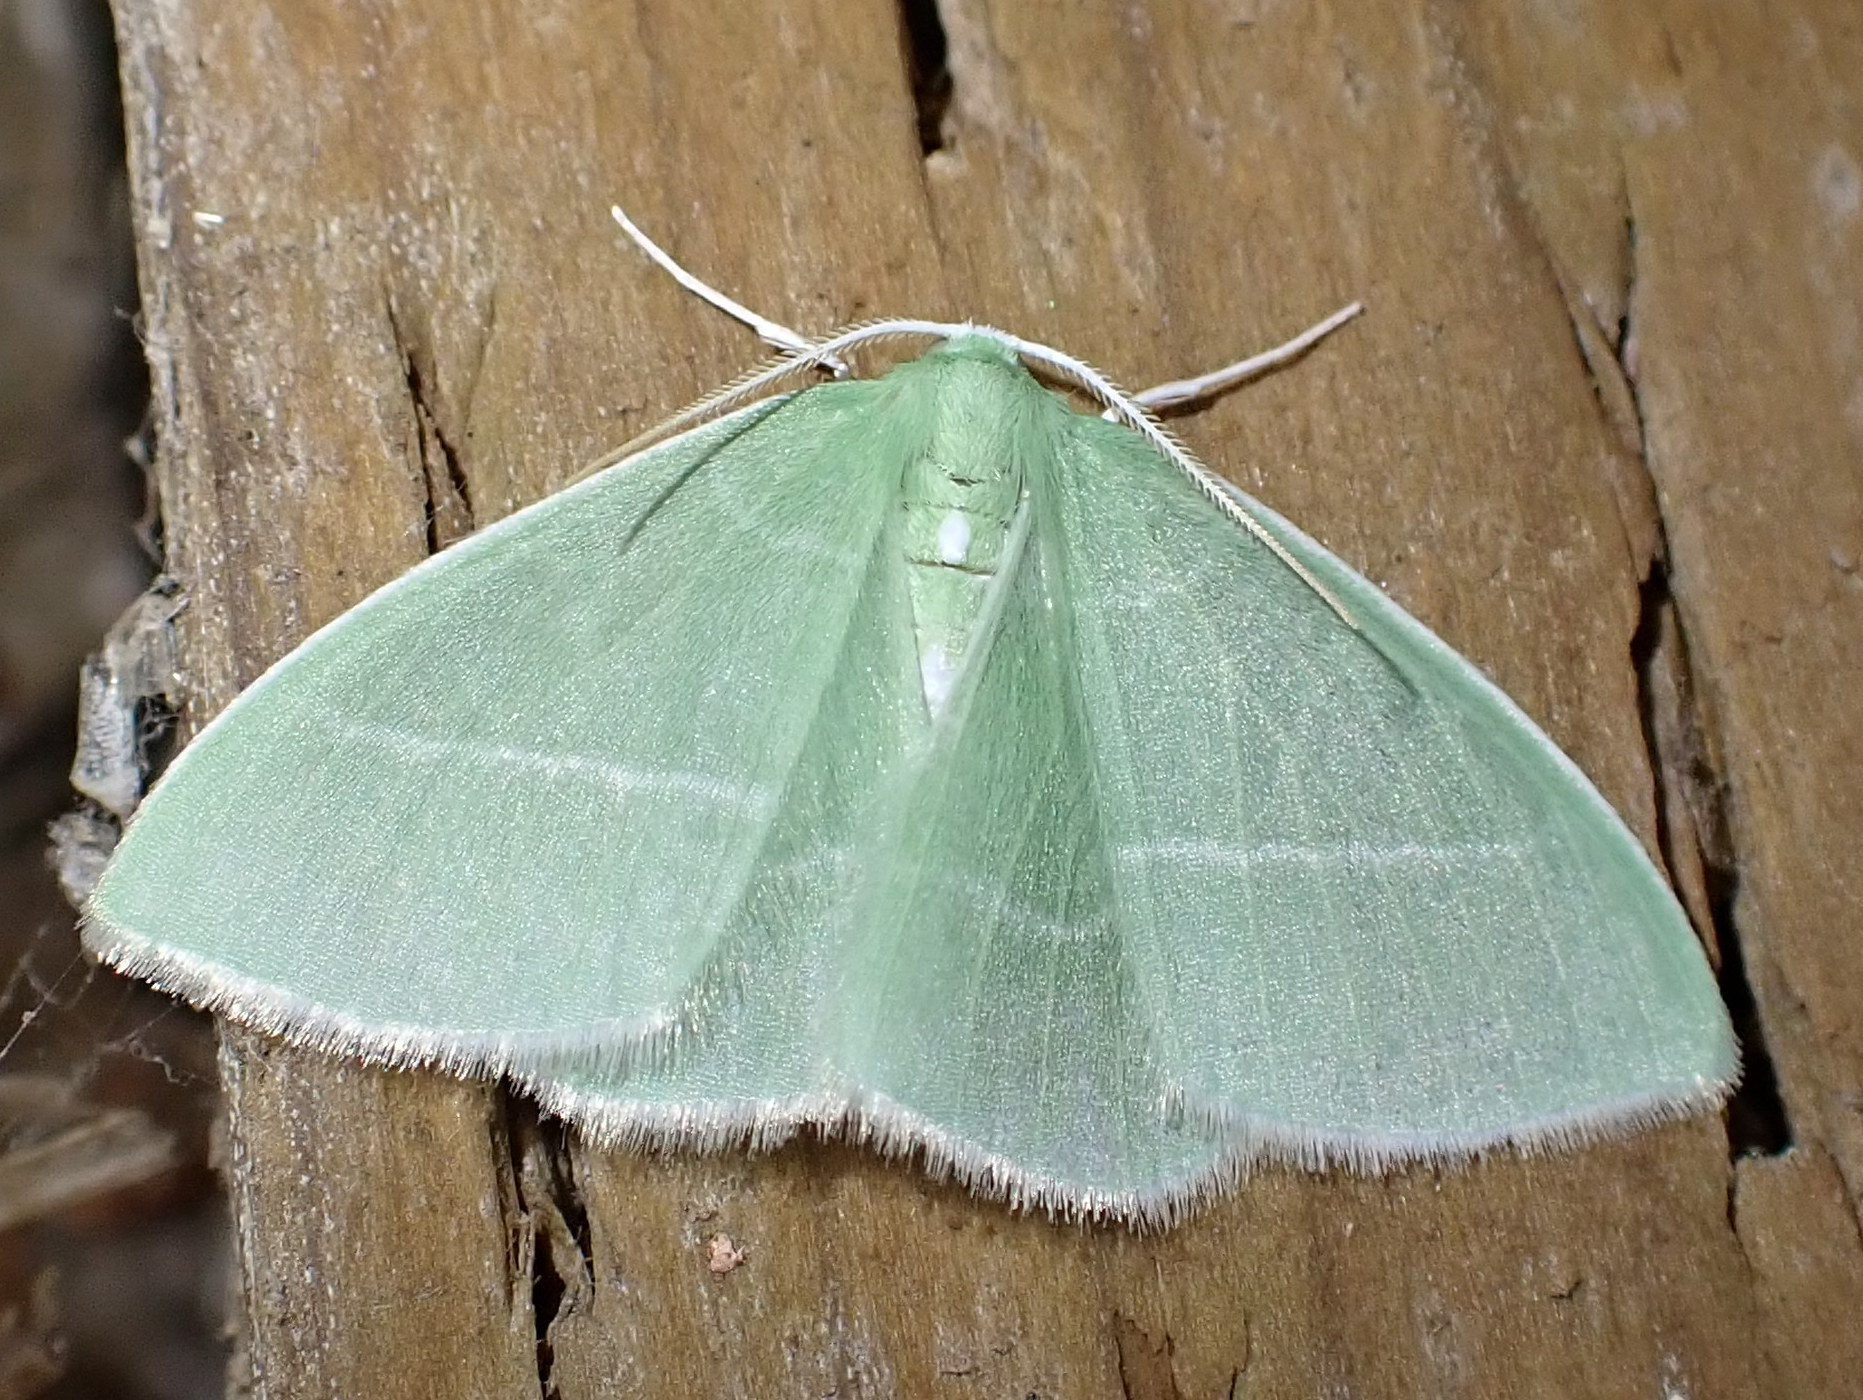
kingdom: Animalia
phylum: Arthropoda
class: Insecta
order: Lepidoptera
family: Geometridae
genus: Nemoria
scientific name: Nemoria mimosaria
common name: White-fringed emerald
